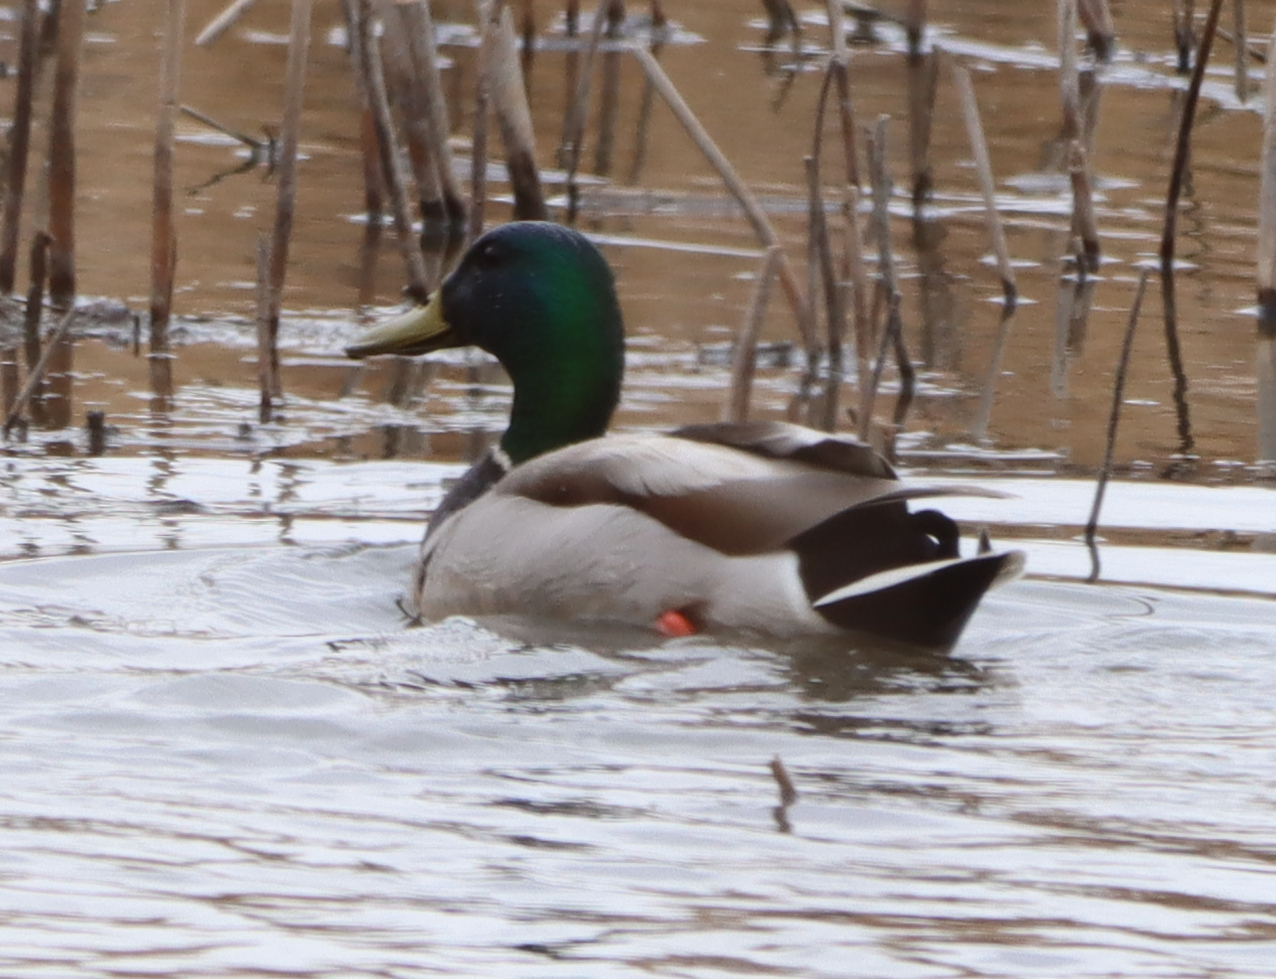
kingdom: Animalia
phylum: Chordata
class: Aves
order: Anseriformes
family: Anatidae
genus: Anas
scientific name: Anas platyrhynchos
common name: Mallard
